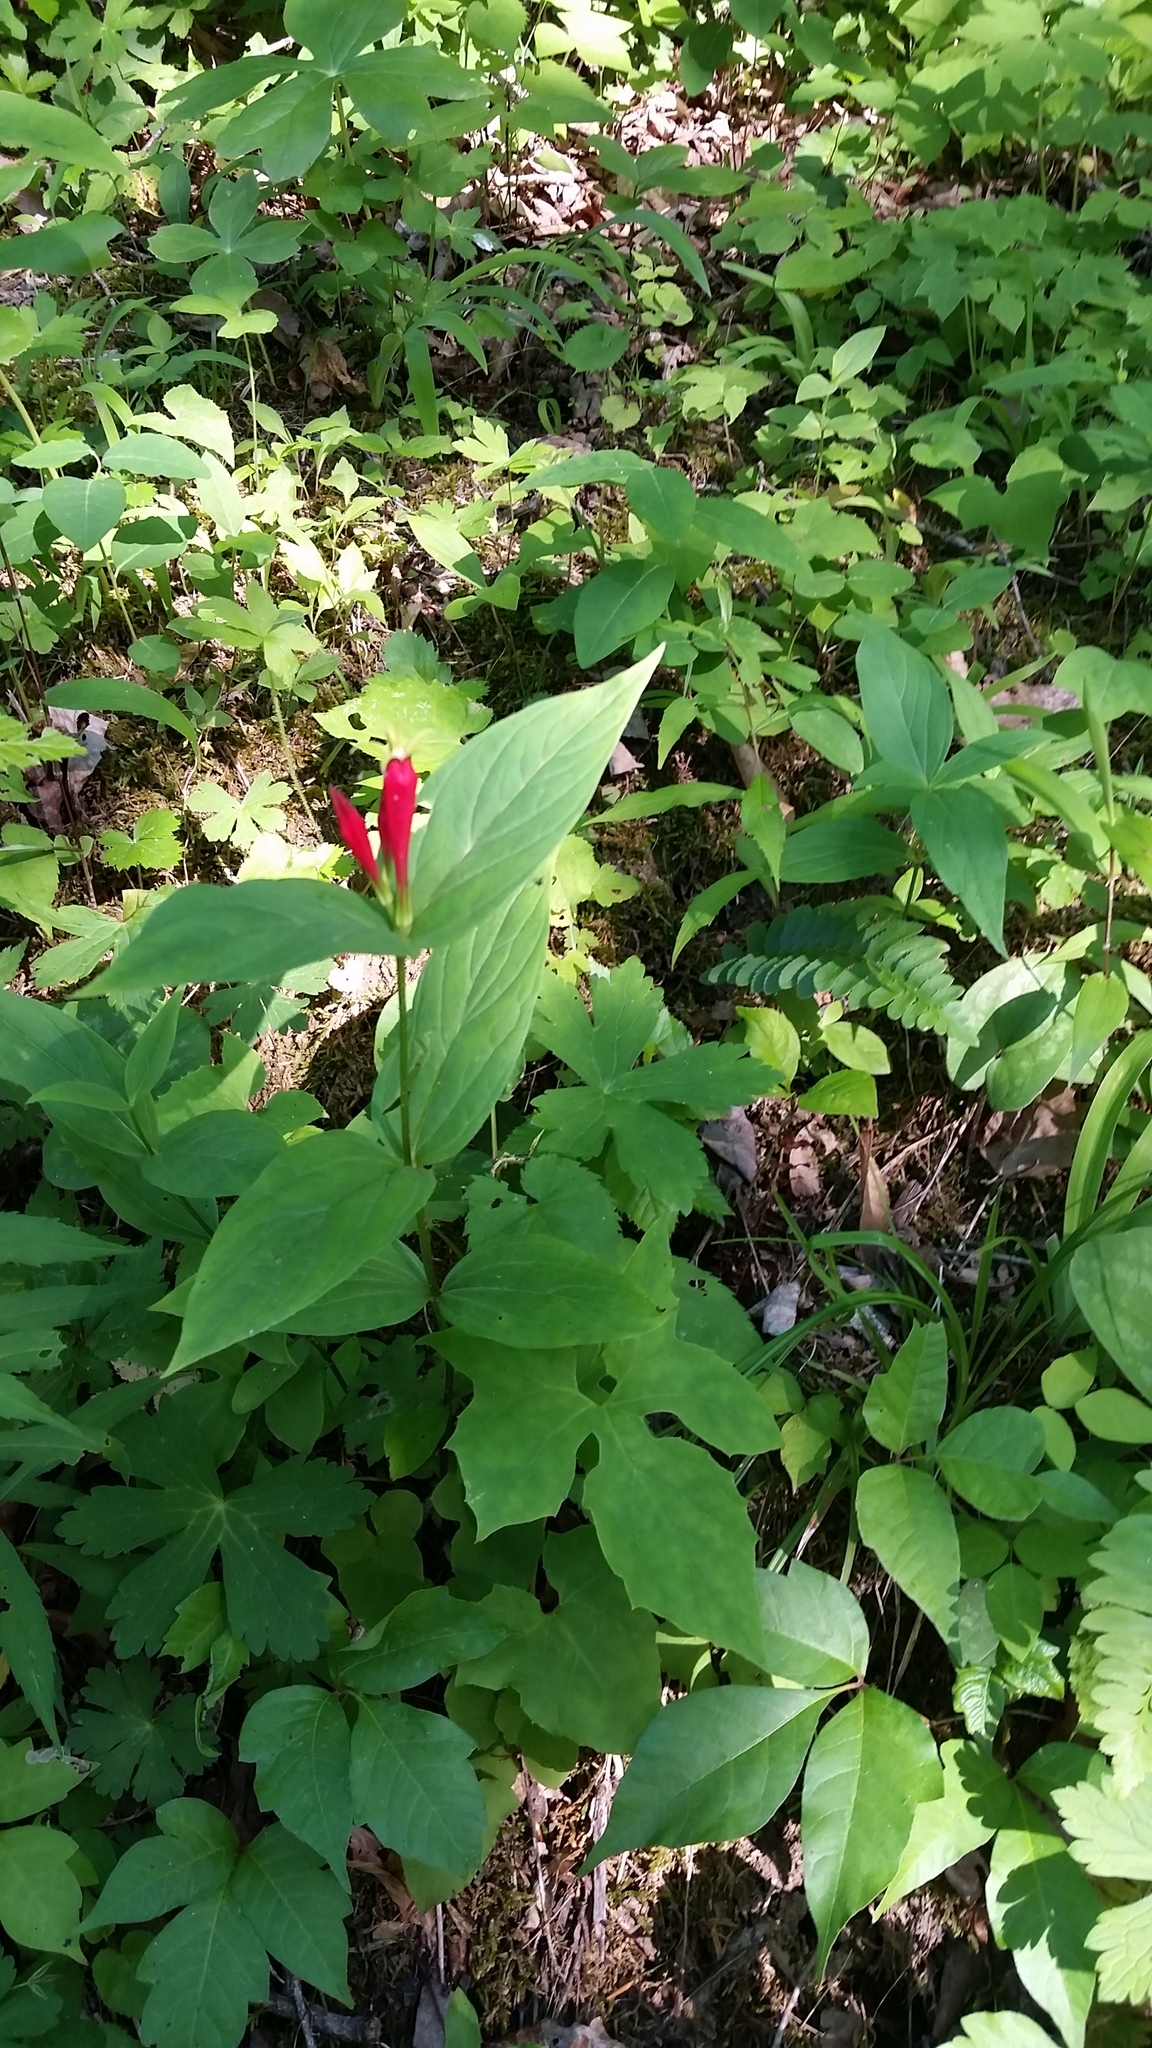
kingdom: Plantae
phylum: Tracheophyta
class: Magnoliopsida
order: Gentianales
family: Loganiaceae
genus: Spigelia
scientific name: Spigelia marilandica
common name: Indian-pink
